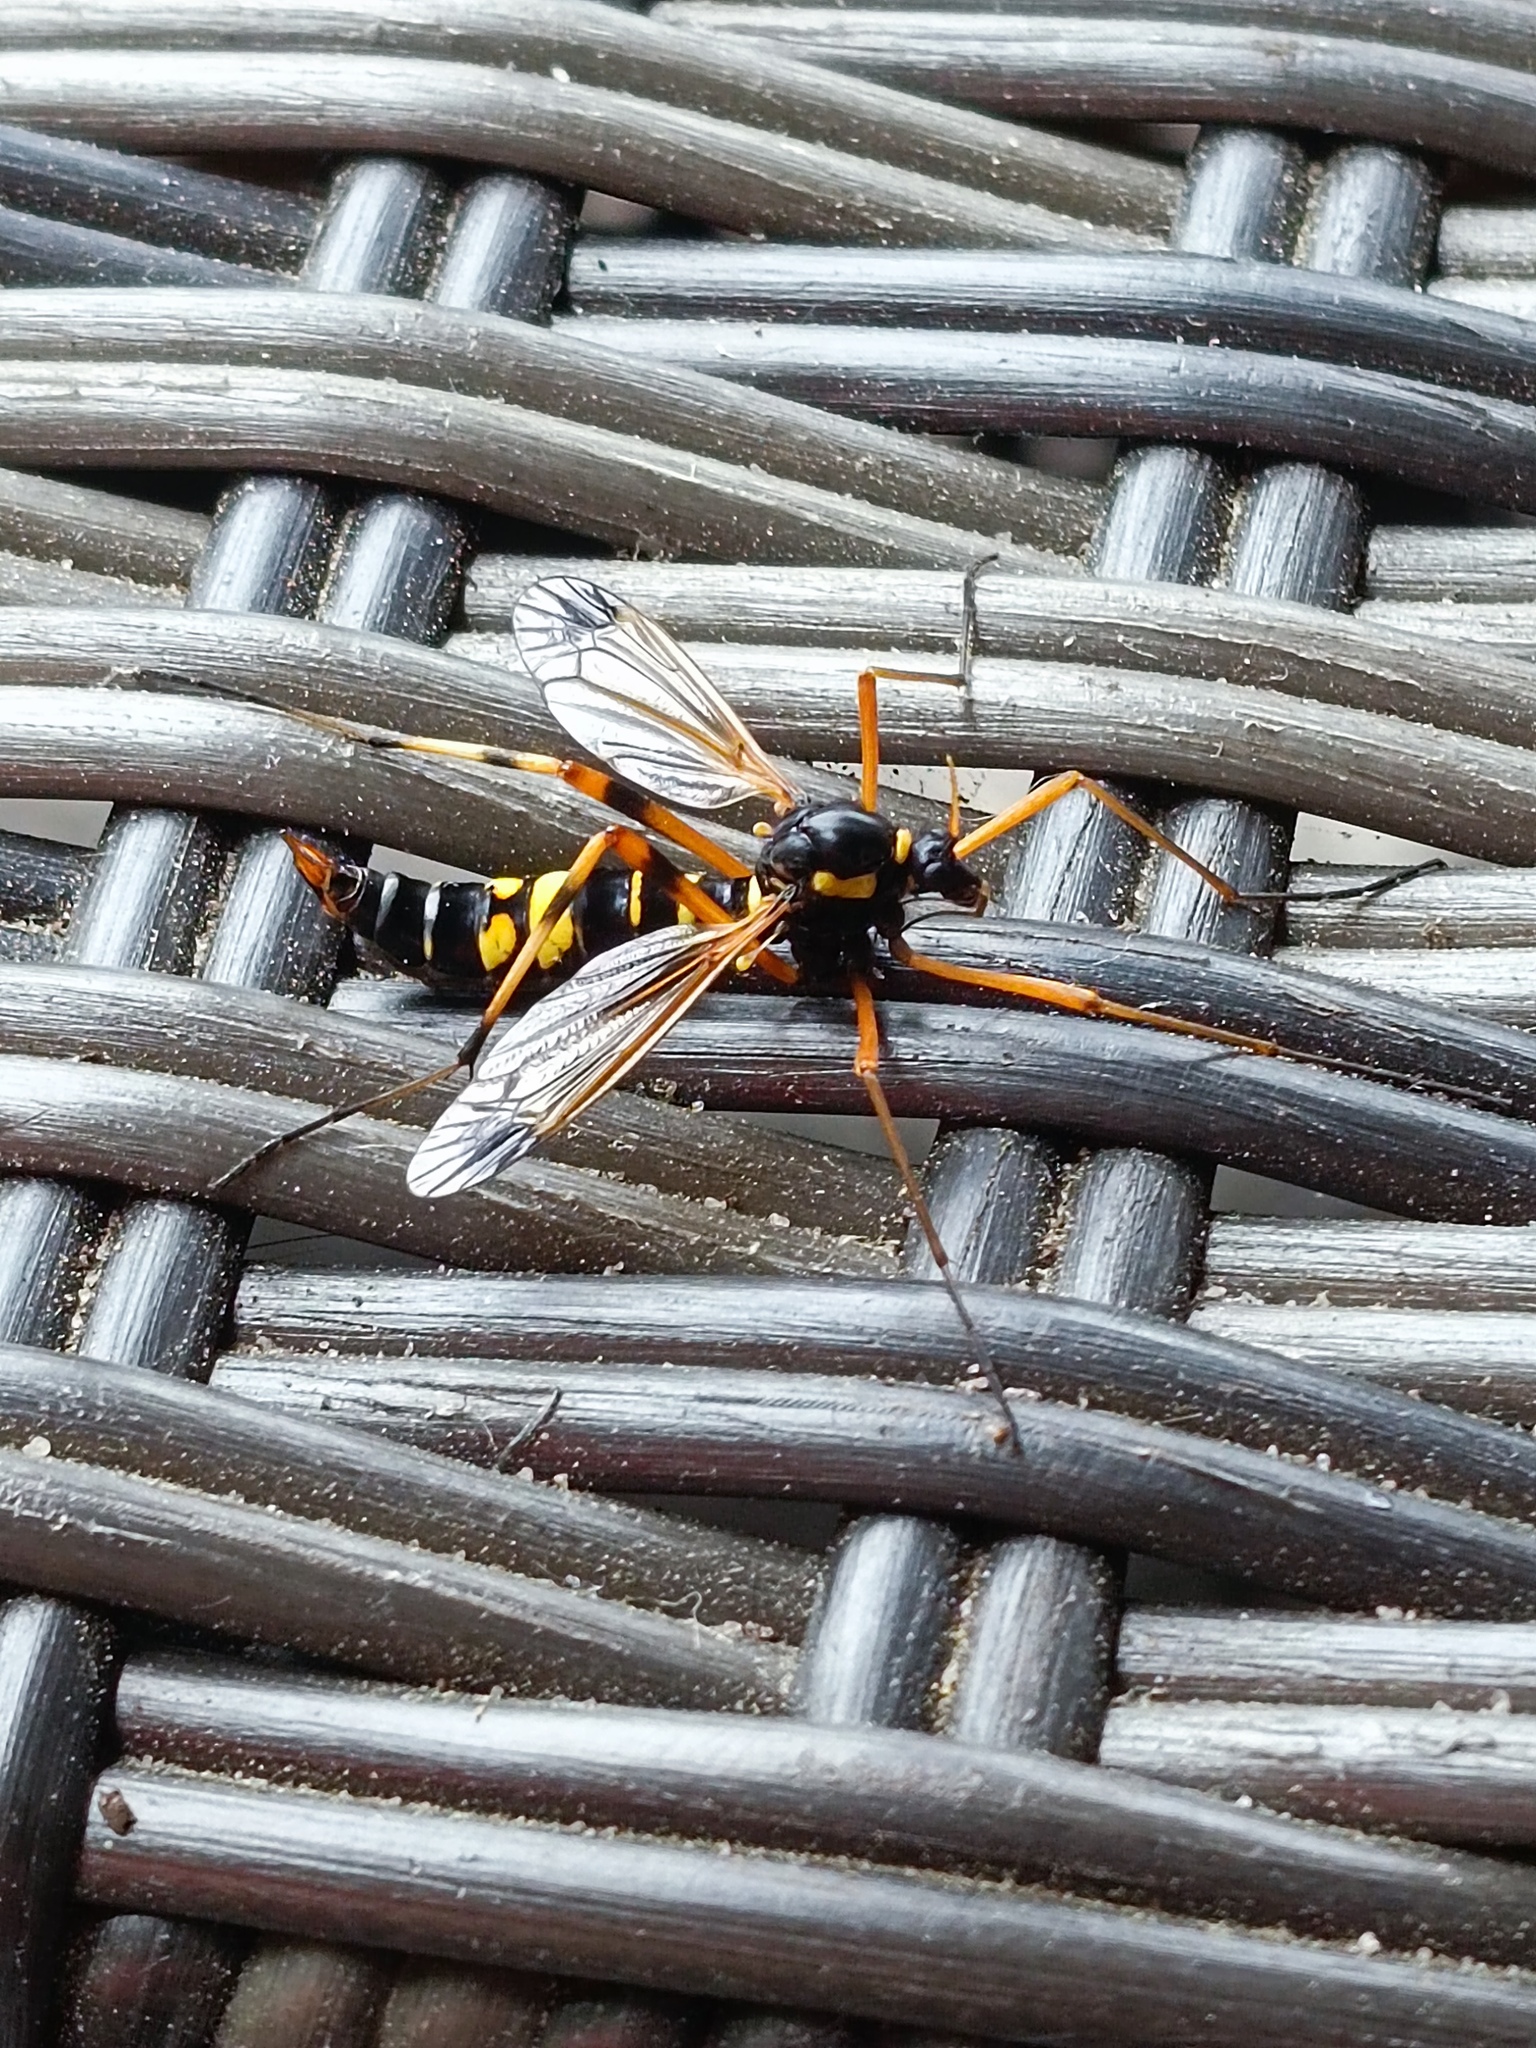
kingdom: Animalia
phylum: Arthropoda
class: Insecta
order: Diptera
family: Tipulidae
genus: Ctenophora
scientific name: Ctenophora festiva
